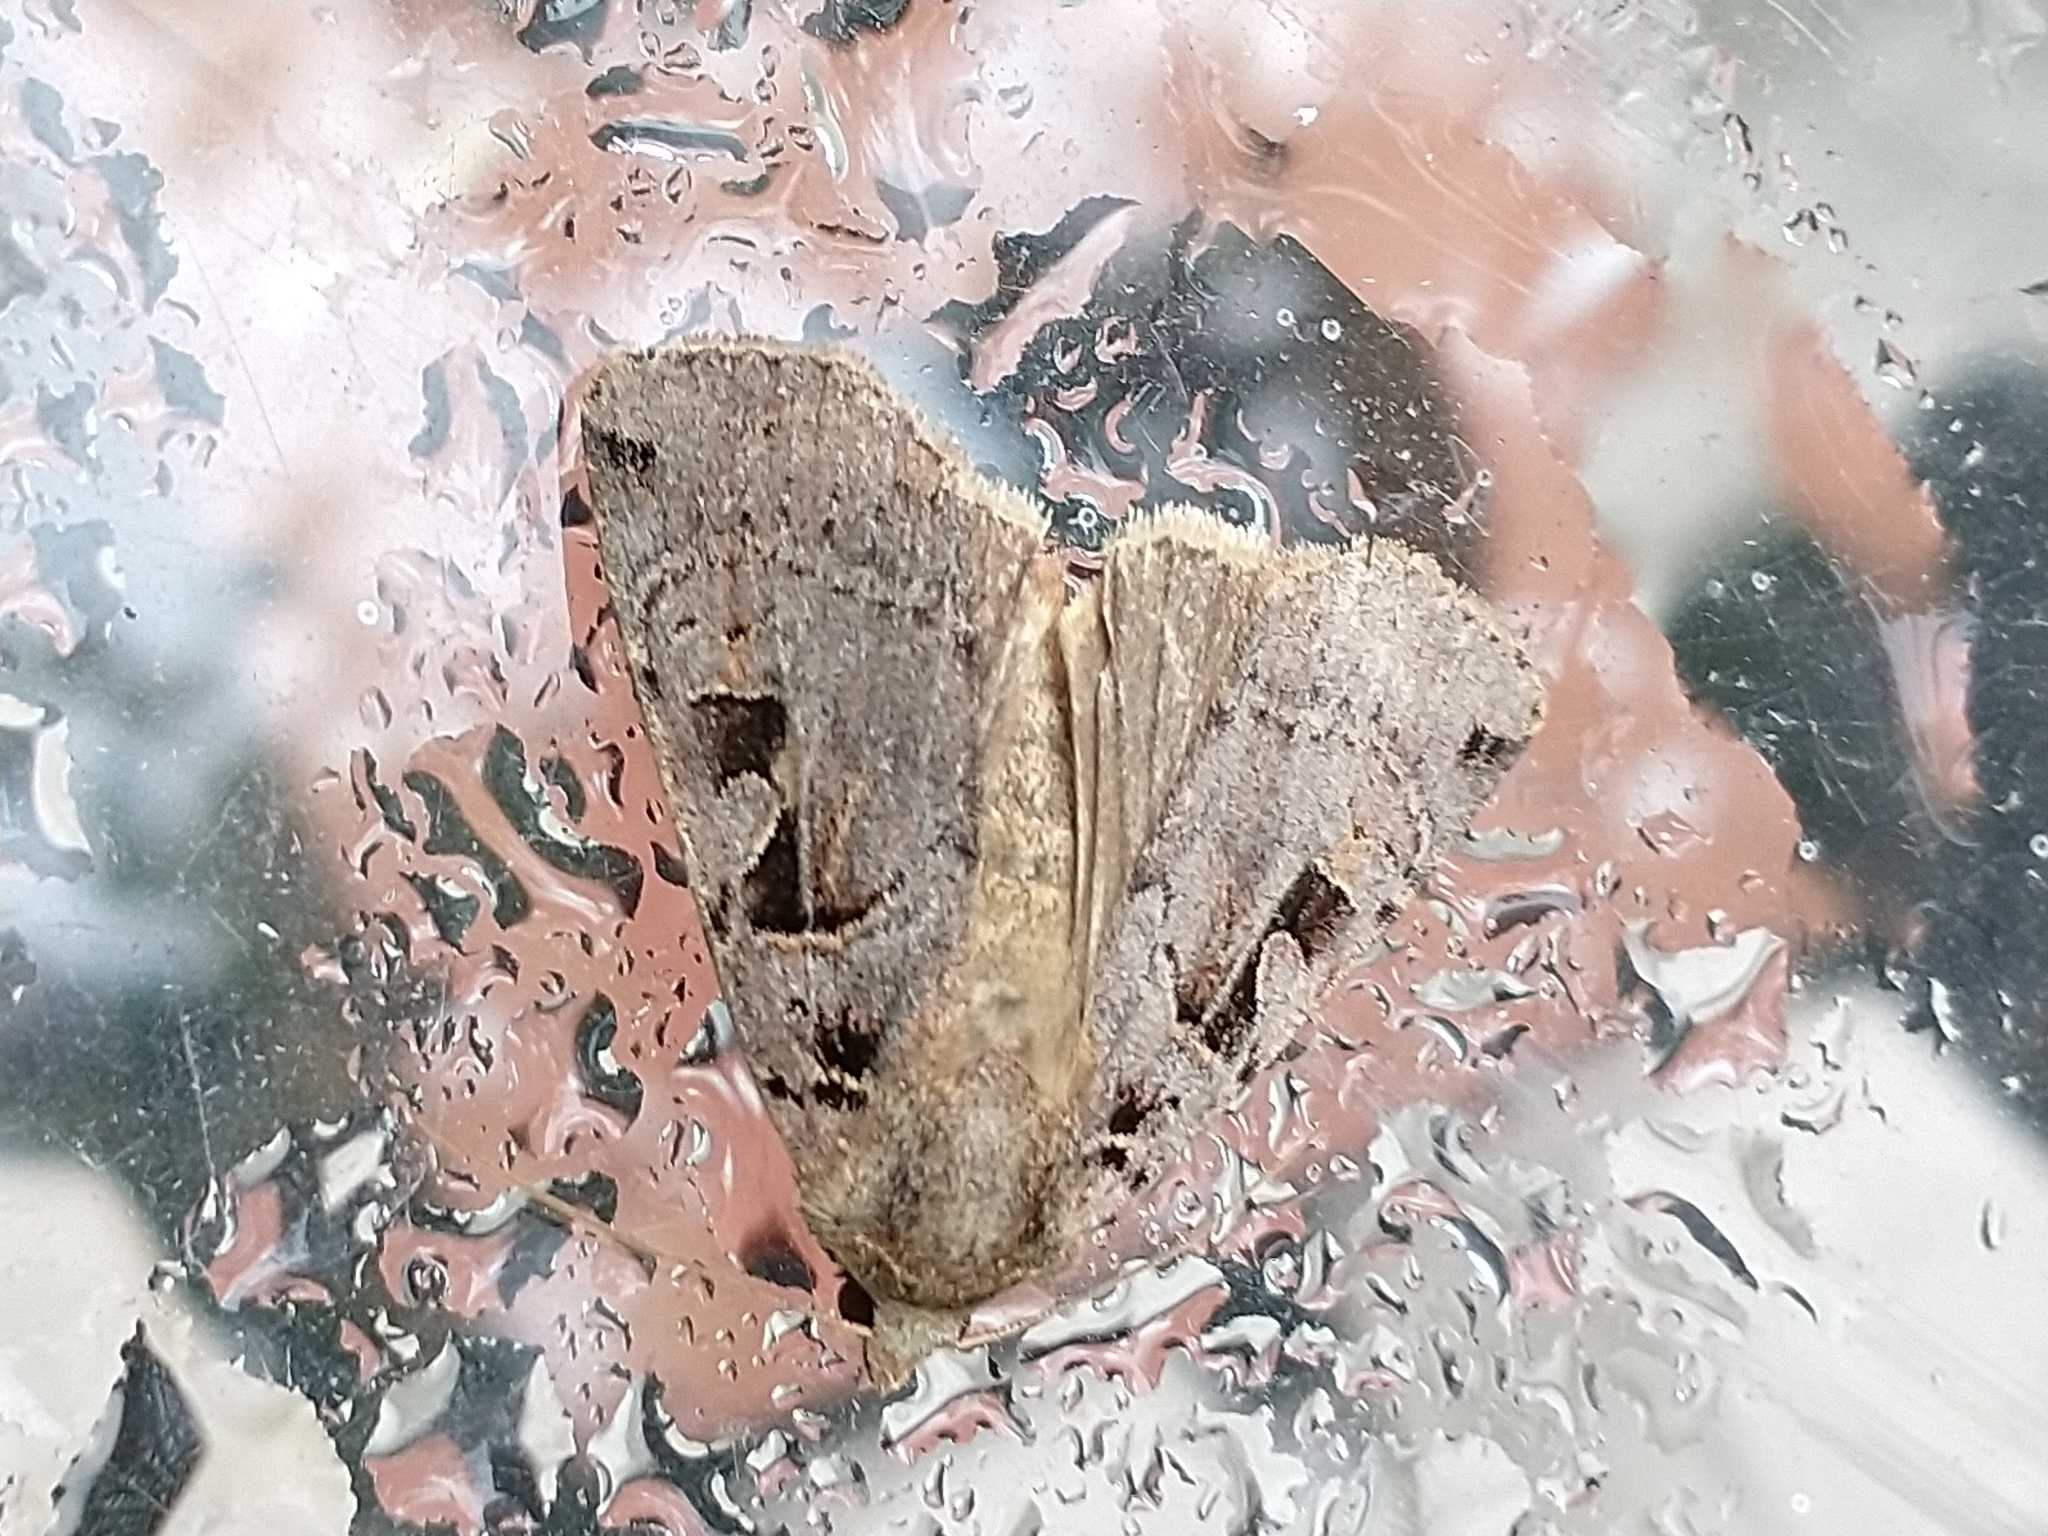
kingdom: Animalia
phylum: Arthropoda
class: Insecta
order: Lepidoptera
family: Noctuidae
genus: Xestia
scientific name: Xestia triangulum
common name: Double square-spot
